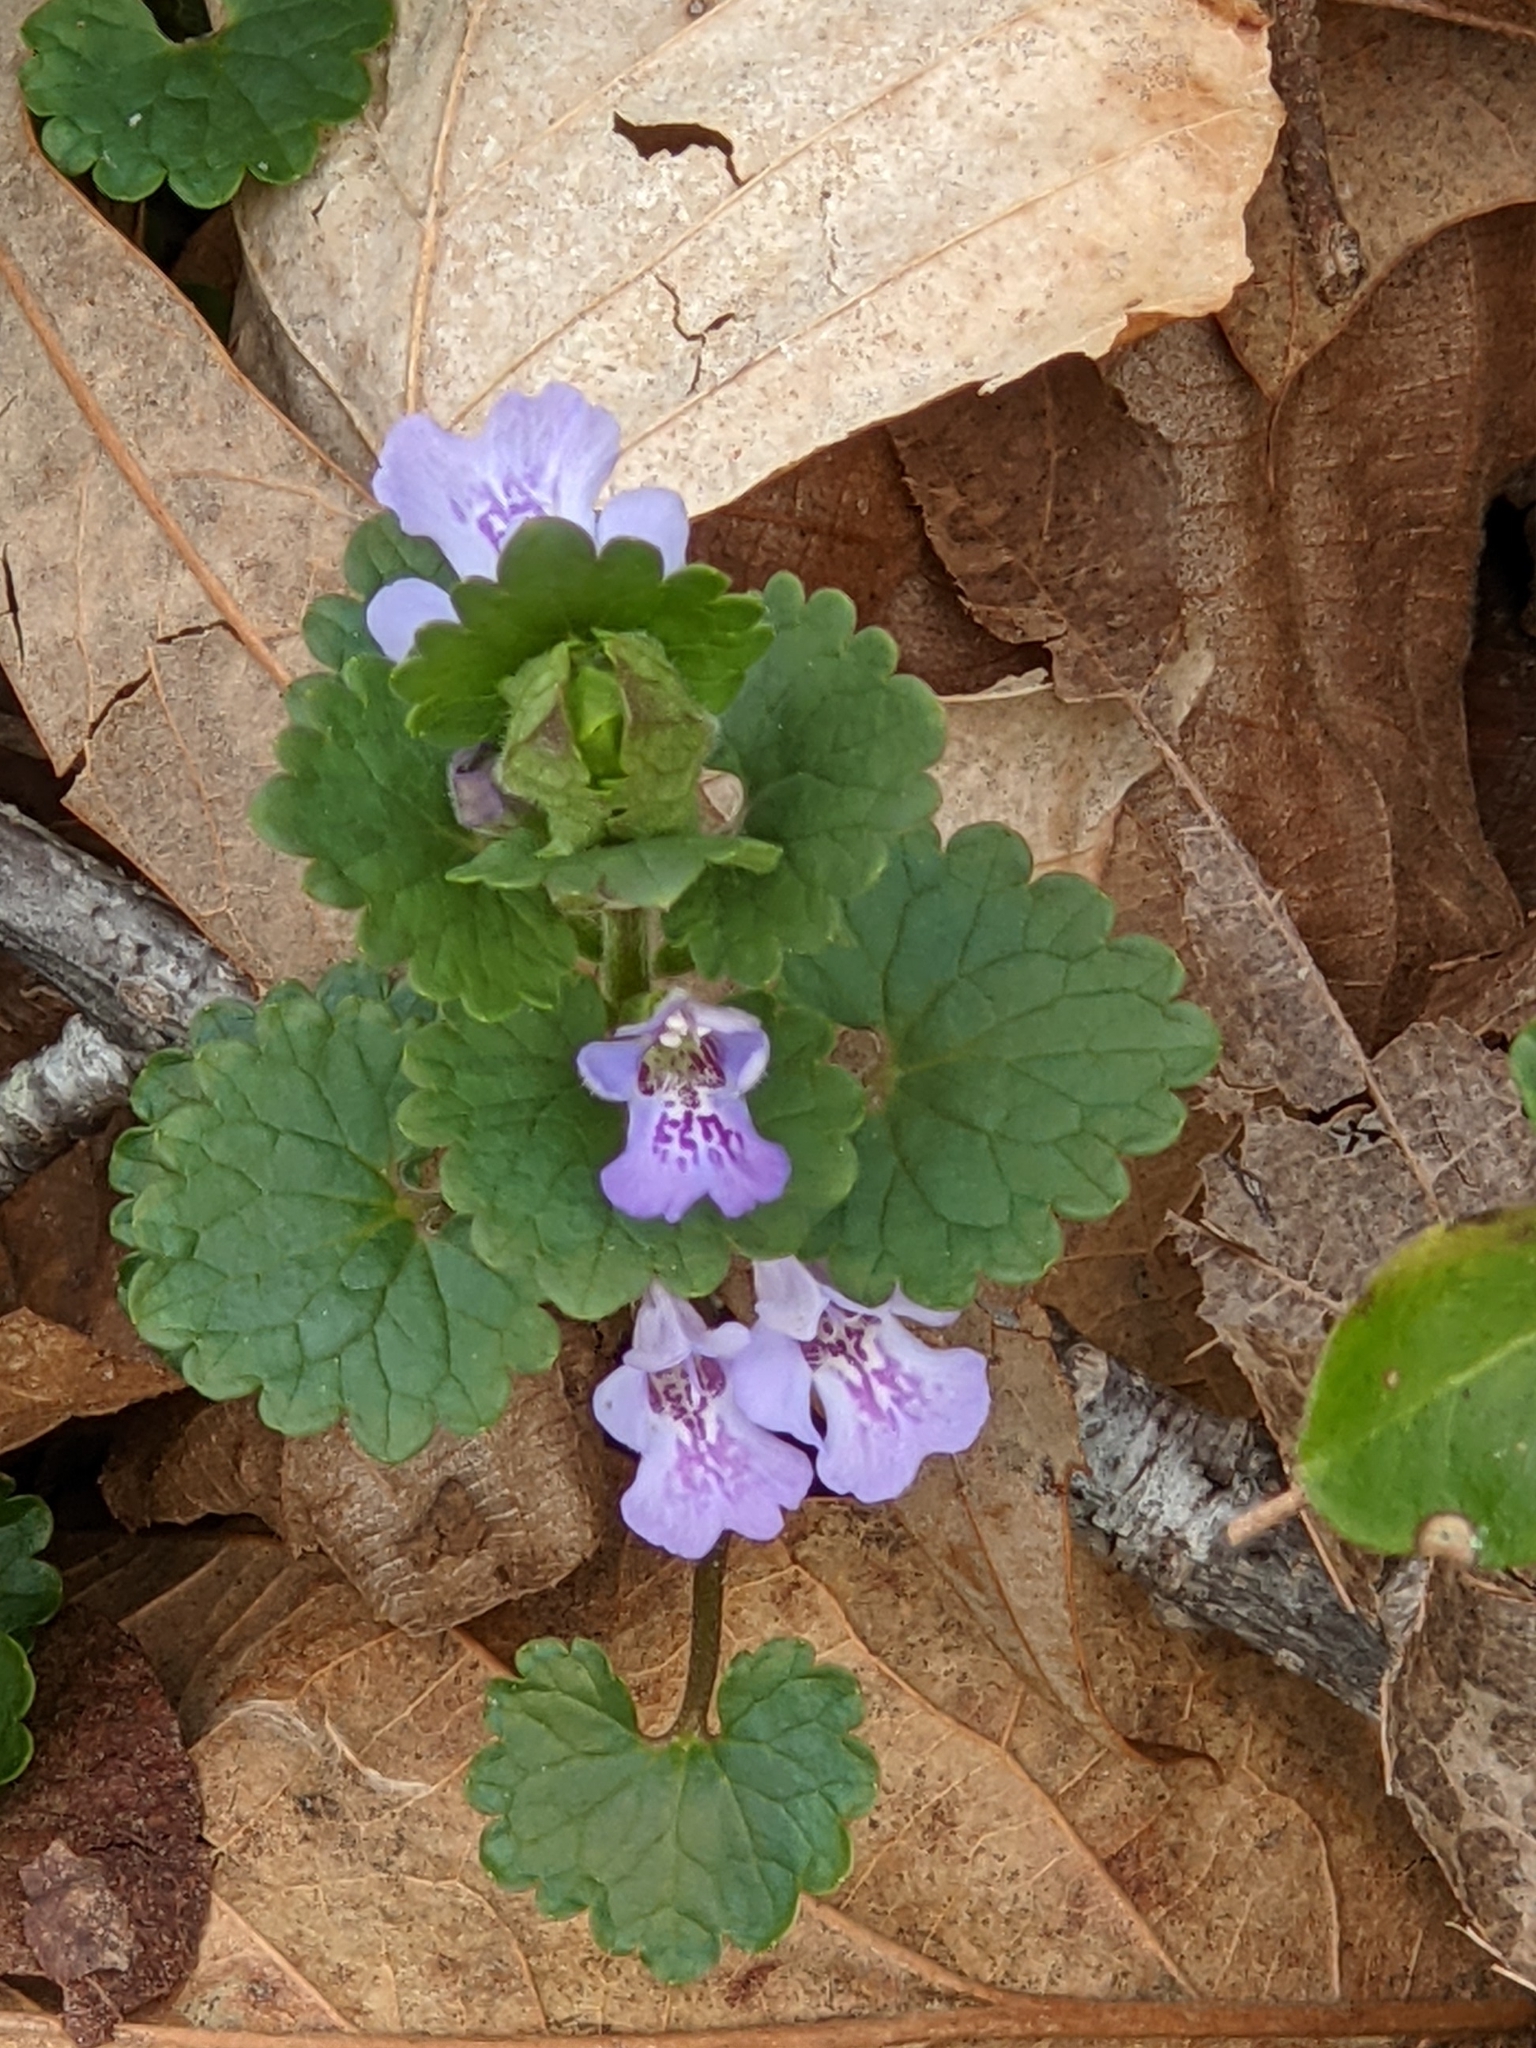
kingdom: Plantae
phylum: Tracheophyta
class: Magnoliopsida
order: Lamiales
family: Lamiaceae
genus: Glechoma
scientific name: Glechoma hederacea
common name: Ground ivy
